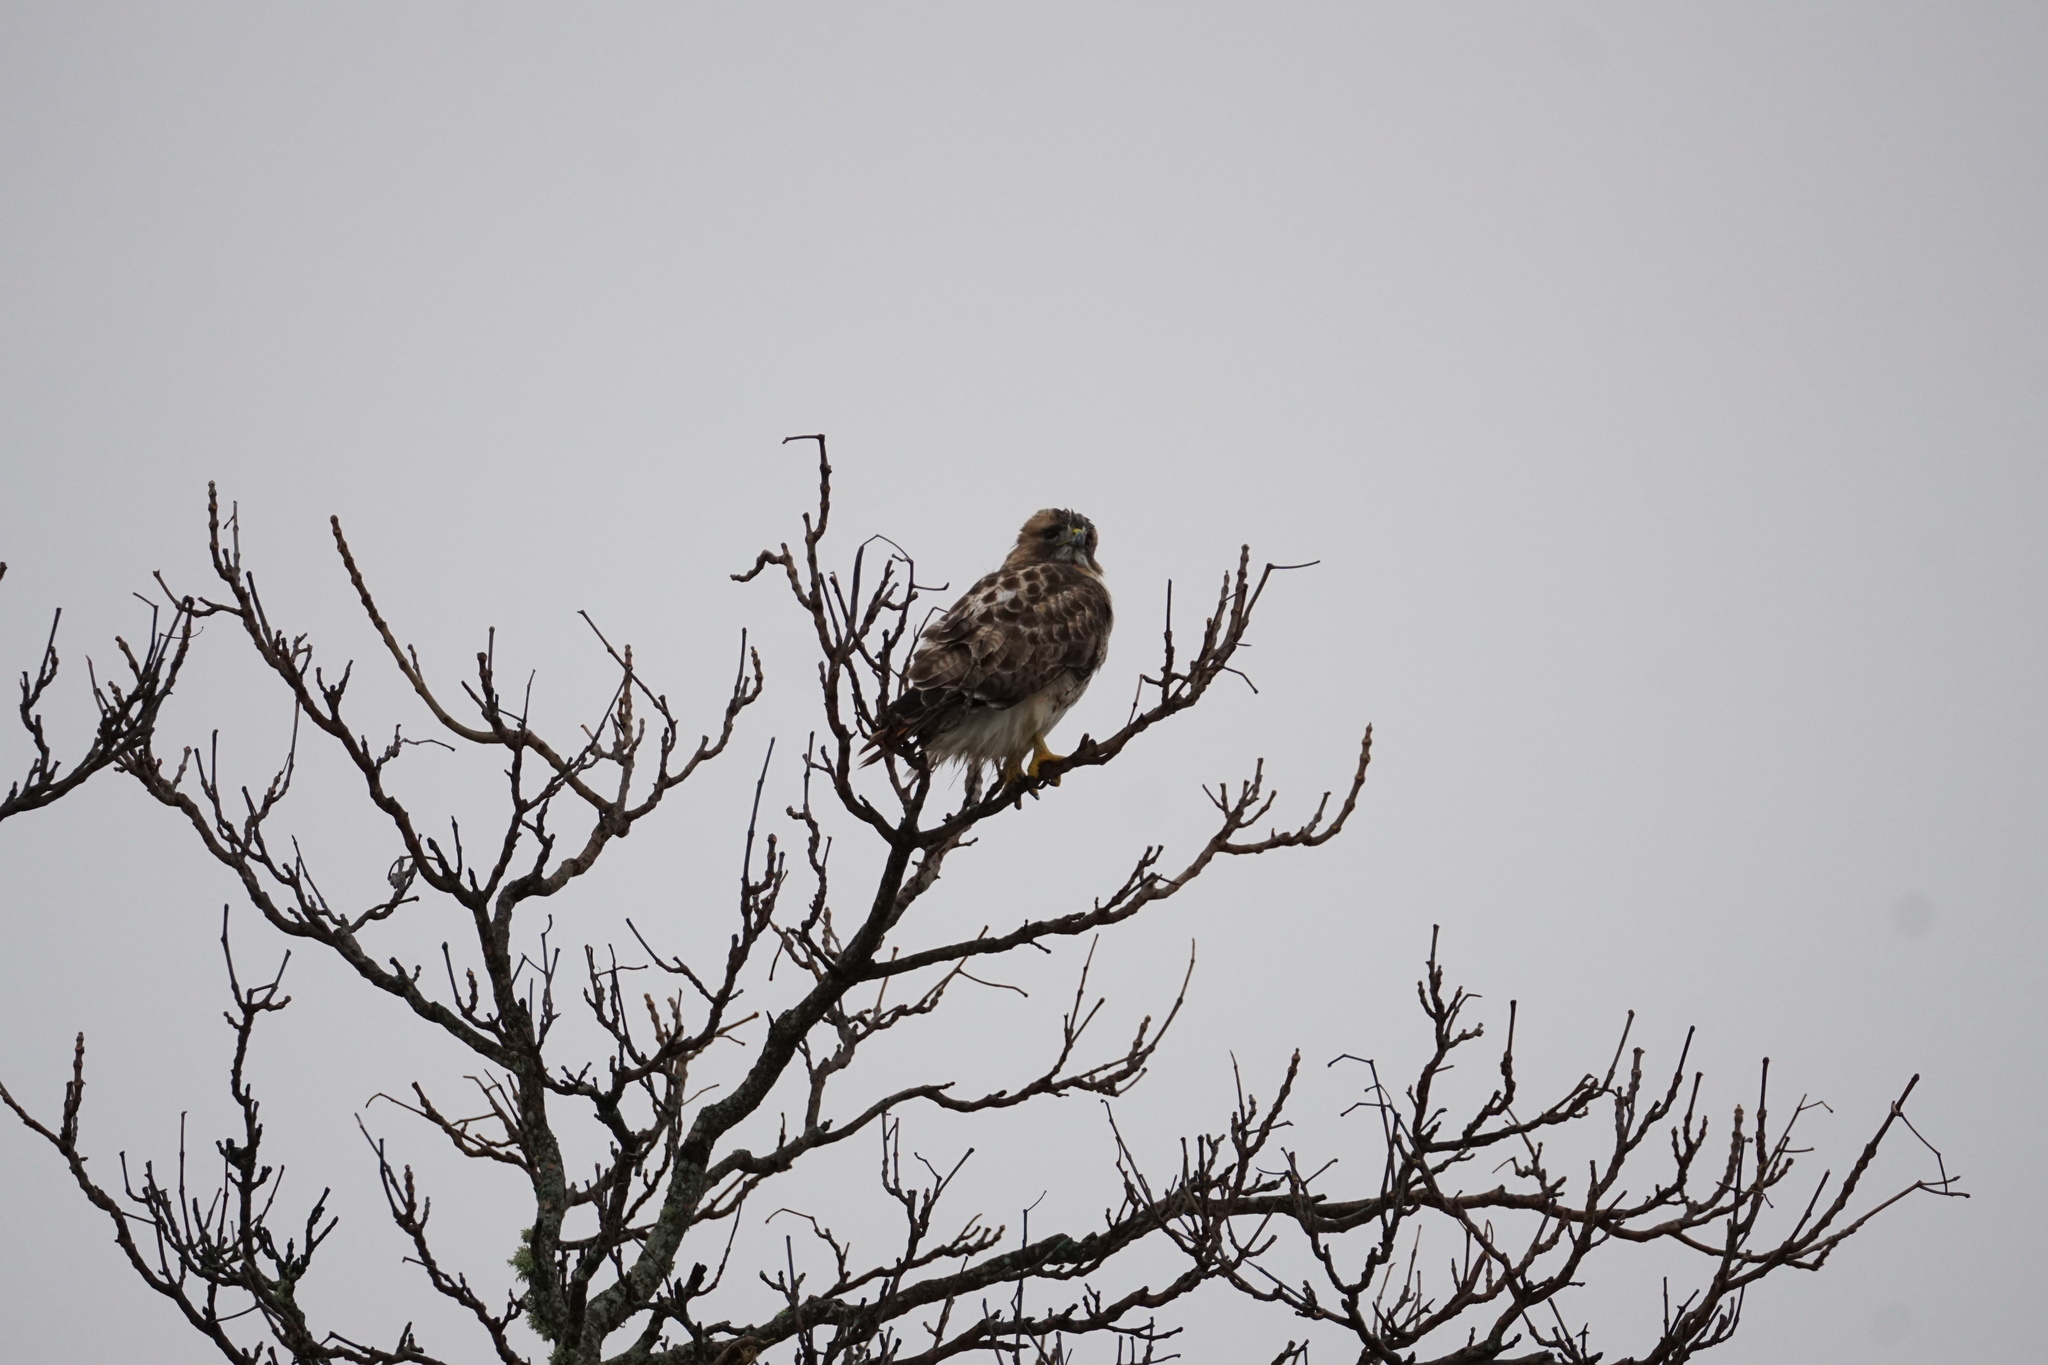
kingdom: Animalia
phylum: Chordata
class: Aves
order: Accipitriformes
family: Accipitridae
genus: Buteo
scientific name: Buteo jamaicensis
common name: Red-tailed hawk
